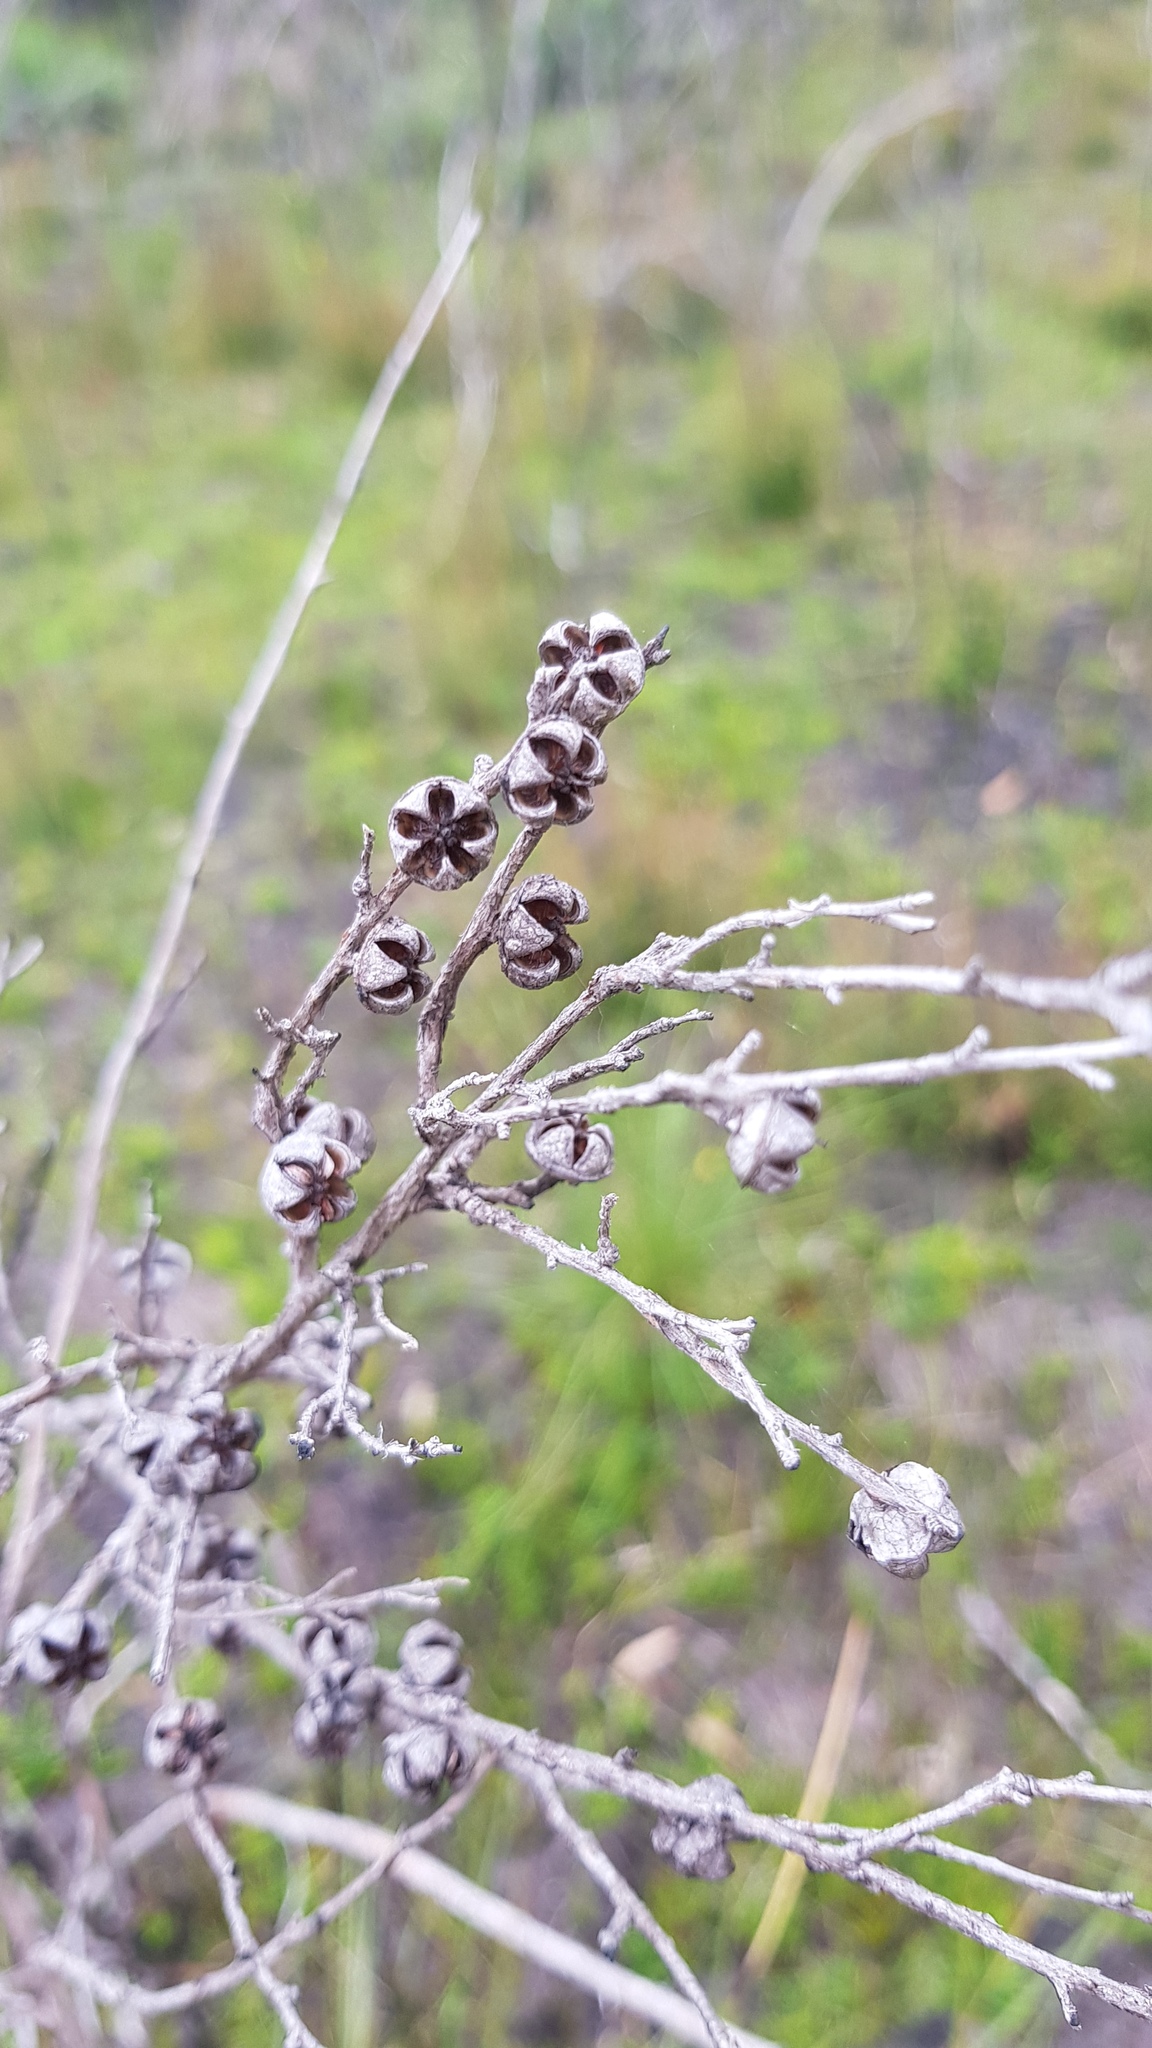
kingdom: Plantae
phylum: Tracheophyta
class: Magnoliopsida
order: Myrtales
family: Myrtaceae
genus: Leptospermum
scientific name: Leptospermum scoparium
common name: Broom tea-tree
